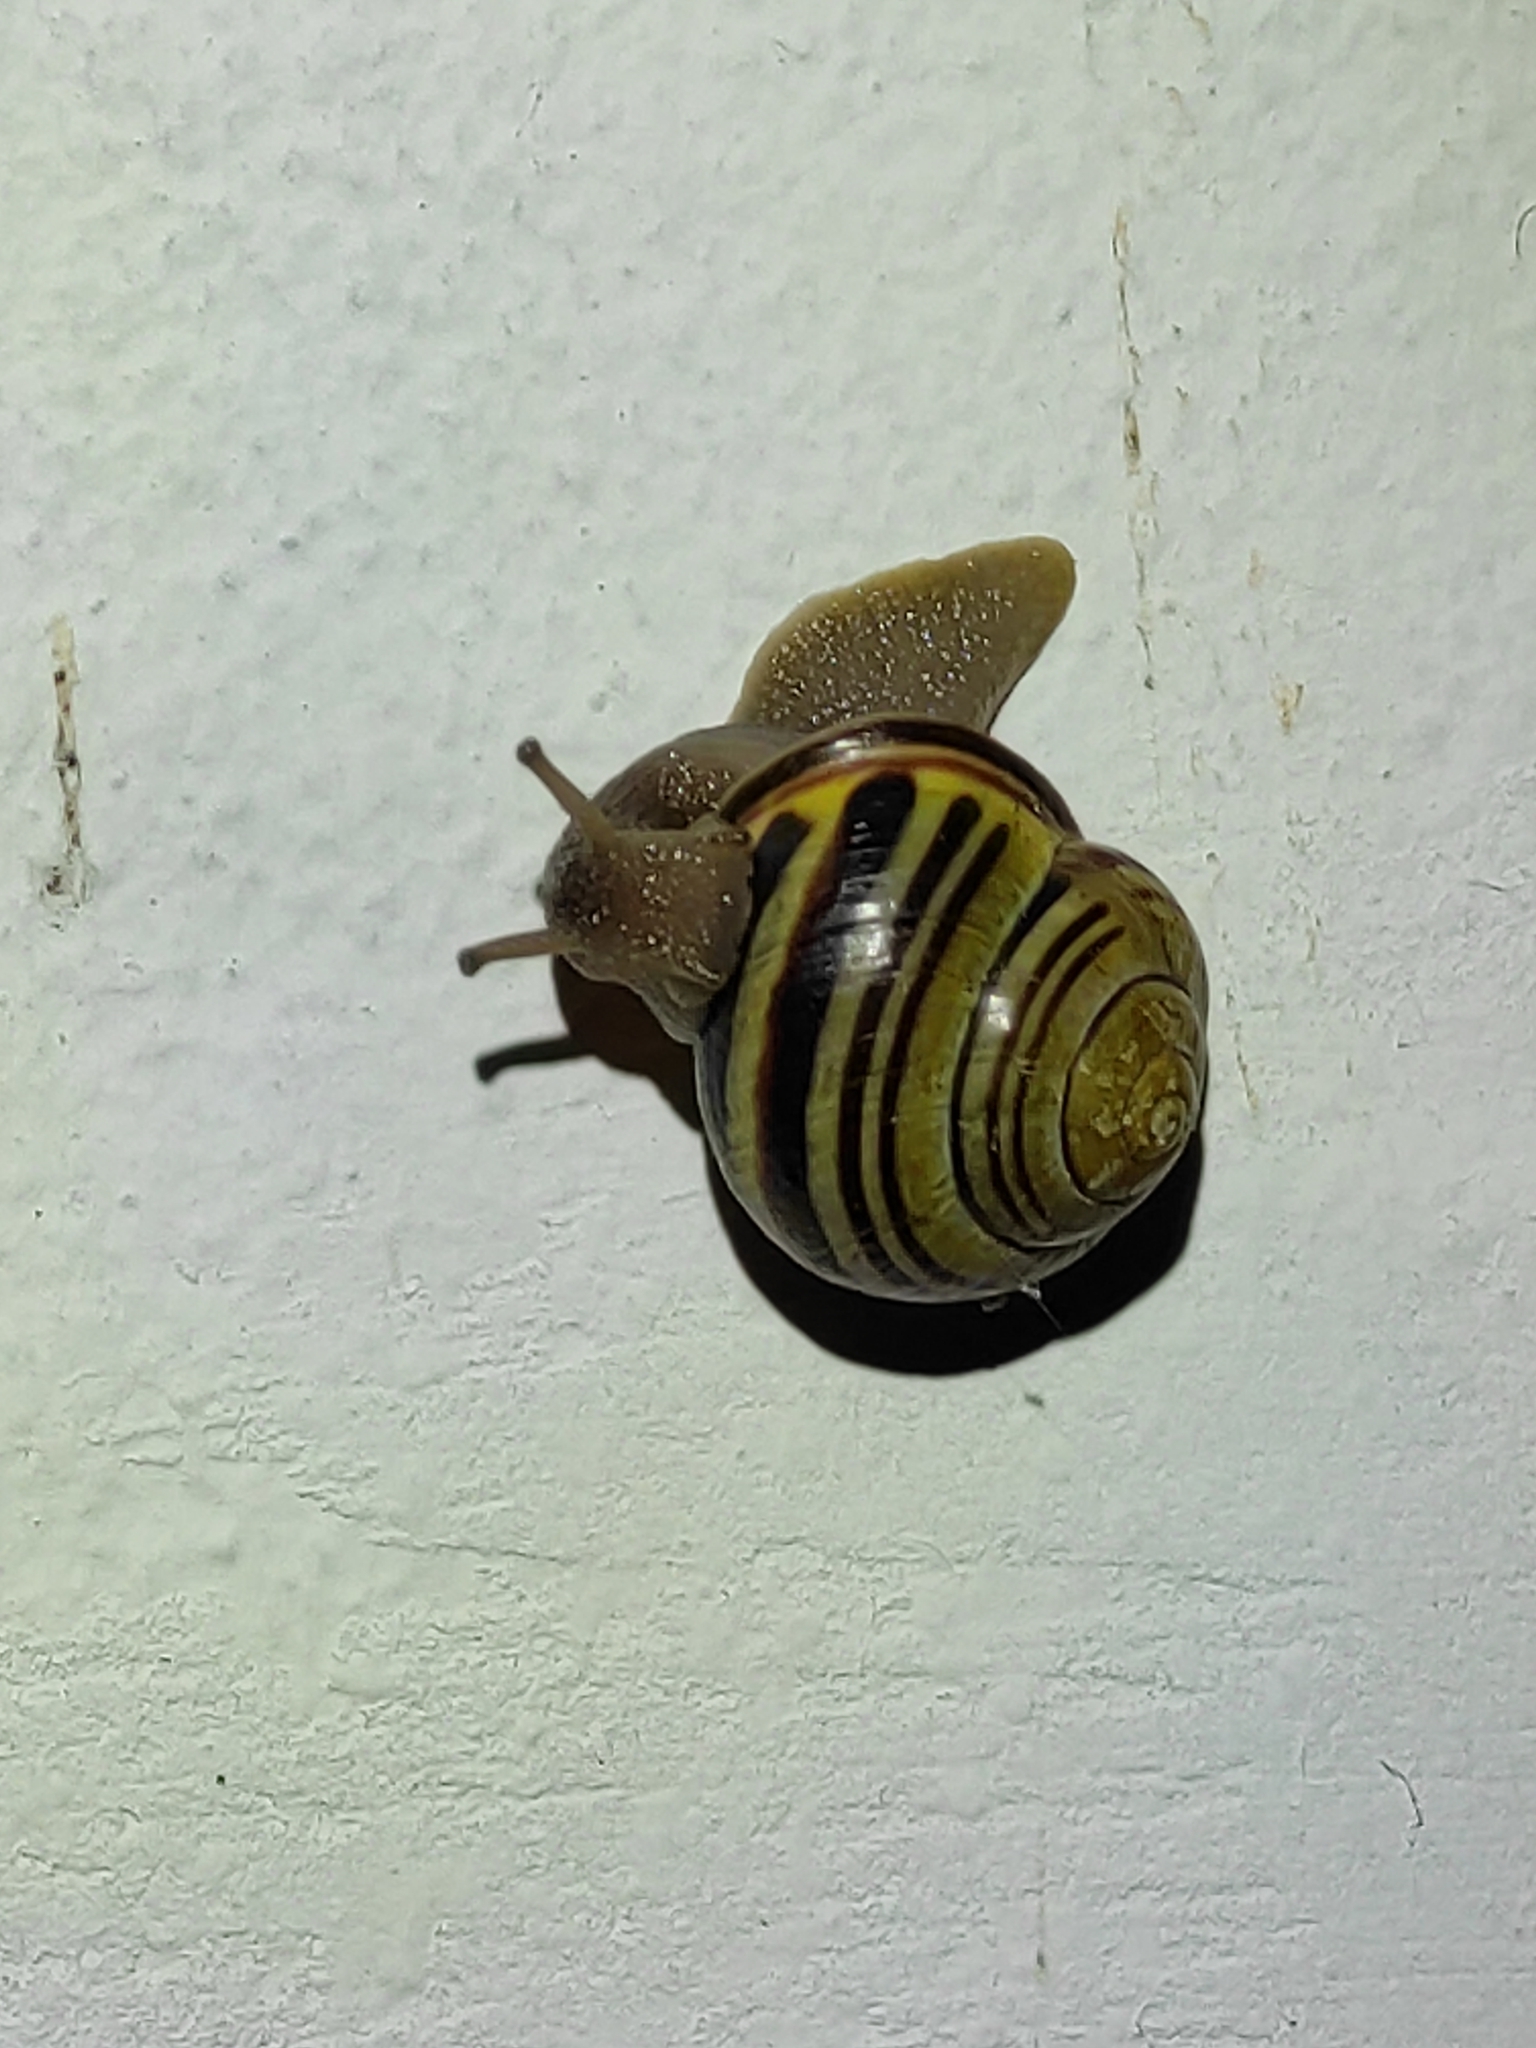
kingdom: Animalia
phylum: Mollusca
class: Gastropoda
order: Stylommatophora
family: Helicidae
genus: Cepaea
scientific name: Cepaea nemoralis
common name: Grovesnail
